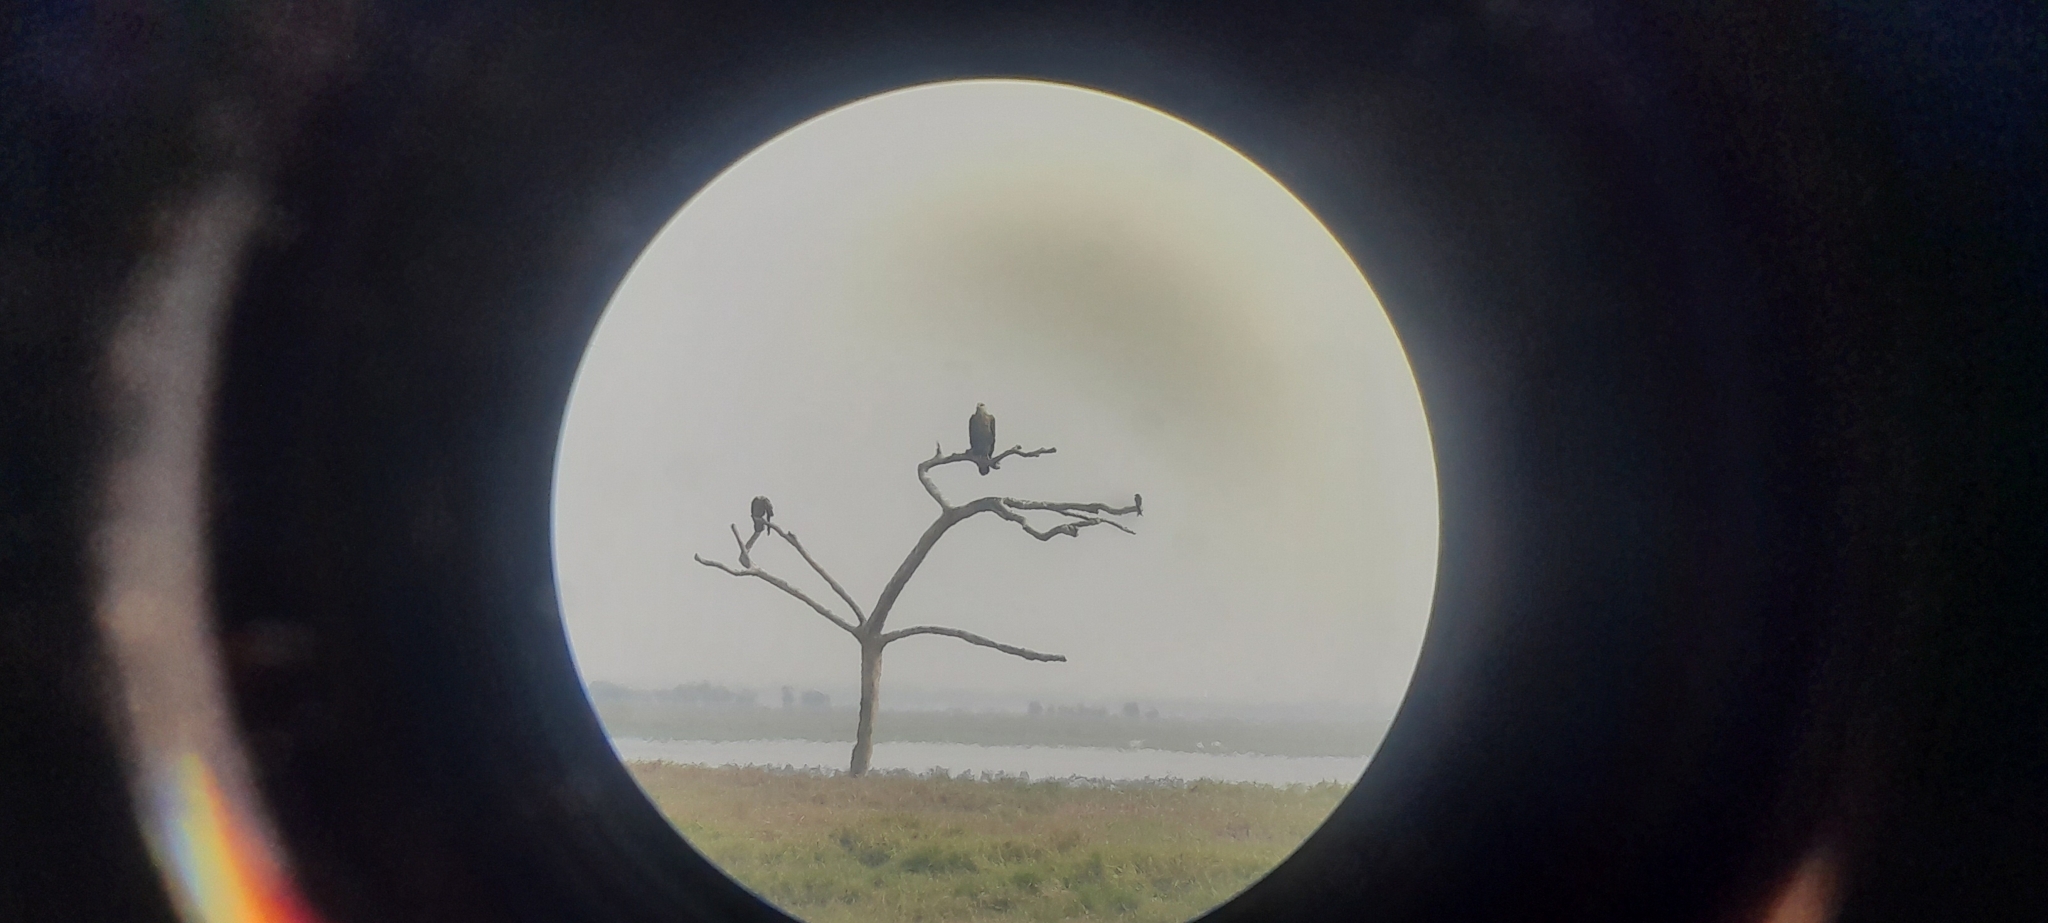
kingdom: Animalia
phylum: Chordata
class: Aves
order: Accipitriformes
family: Accipitridae
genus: Haliaeetus
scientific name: Haliaeetus leucoryphus
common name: Pallas's fish eagle
